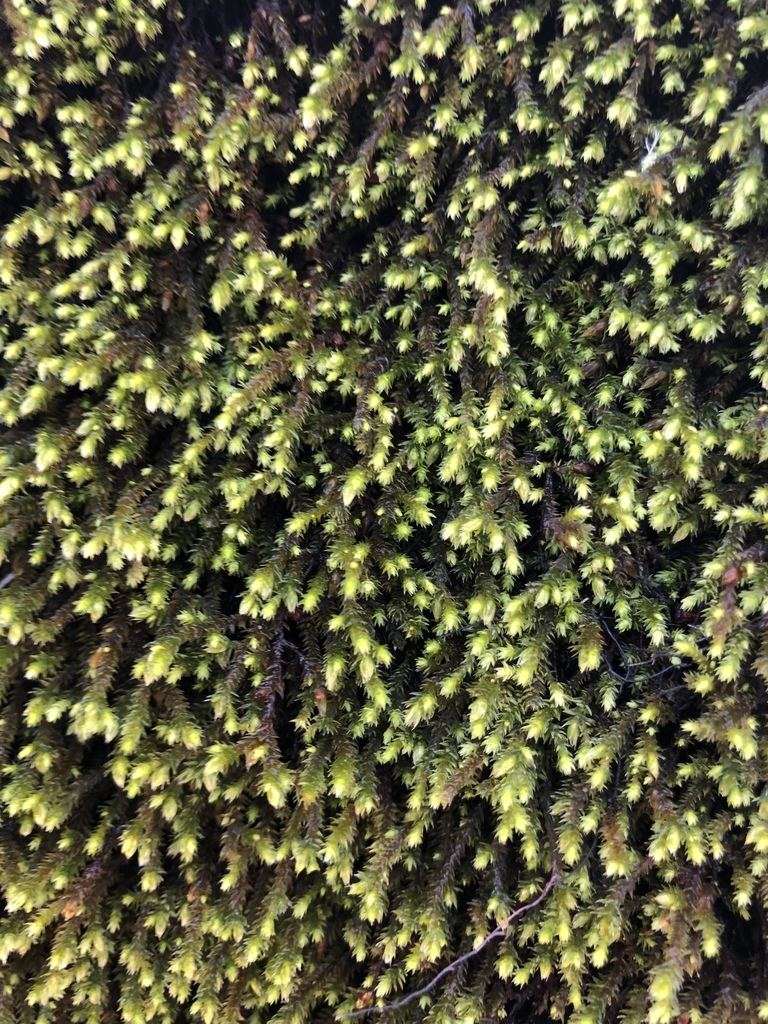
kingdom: Plantae
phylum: Bryophyta
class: Bryopsida
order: Hedwigiales
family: Hedwigiaceae
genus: Hedwigia
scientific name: Hedwigia ciliata
